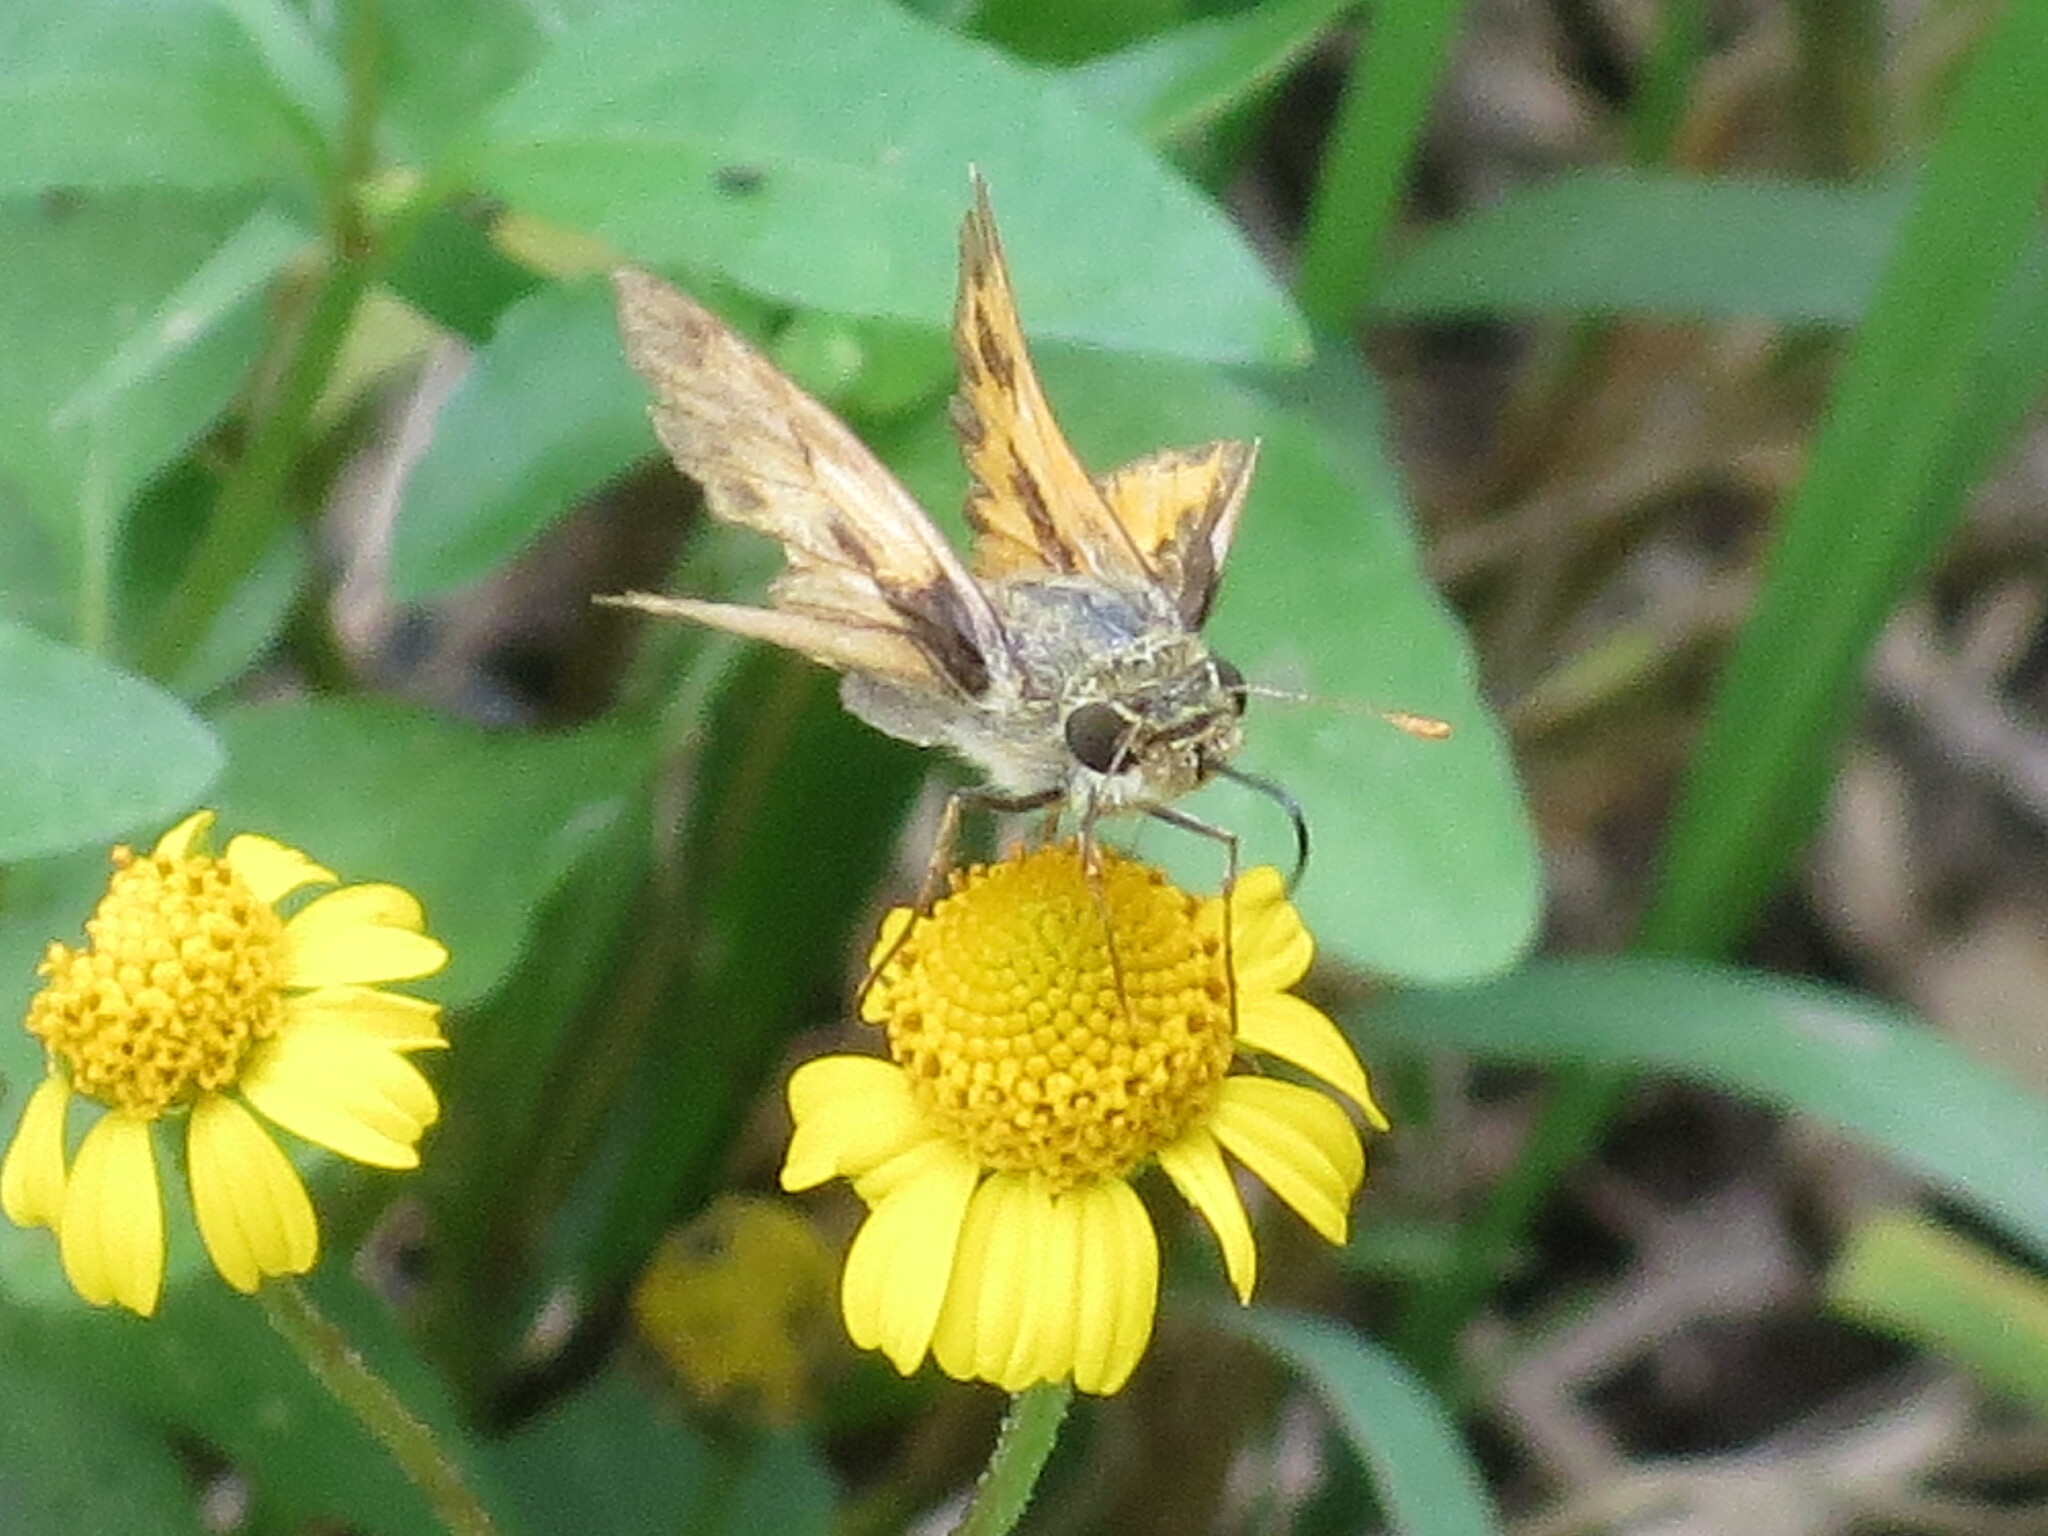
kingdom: Animalia
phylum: Arthropoda
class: Insecta
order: Lepidoptera
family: Hesperiidae
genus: Hylephila
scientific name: Hylephila phyleus
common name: Fiery skipper
